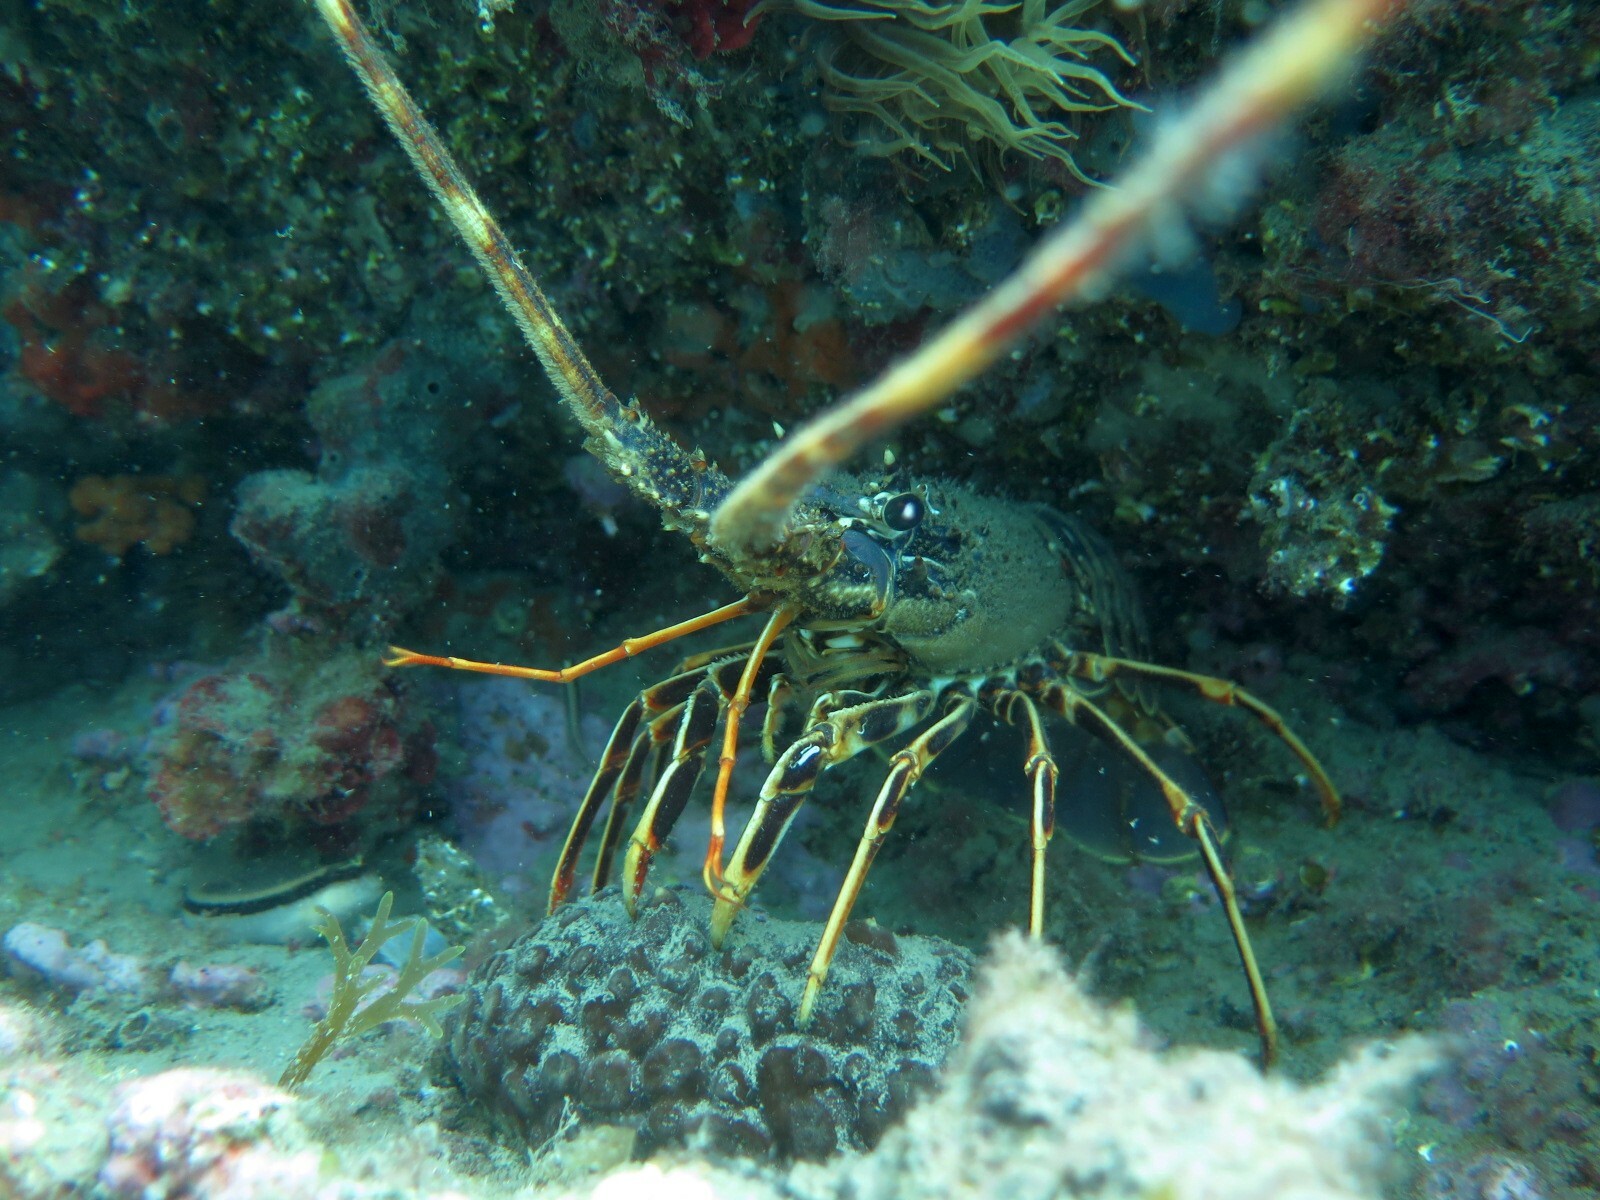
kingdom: Animalia
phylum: Arthropoda
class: Malacostraca
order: Decapoda
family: Palinuridae
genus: Palinurus
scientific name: Palinurus elephas
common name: European spiny lobster
